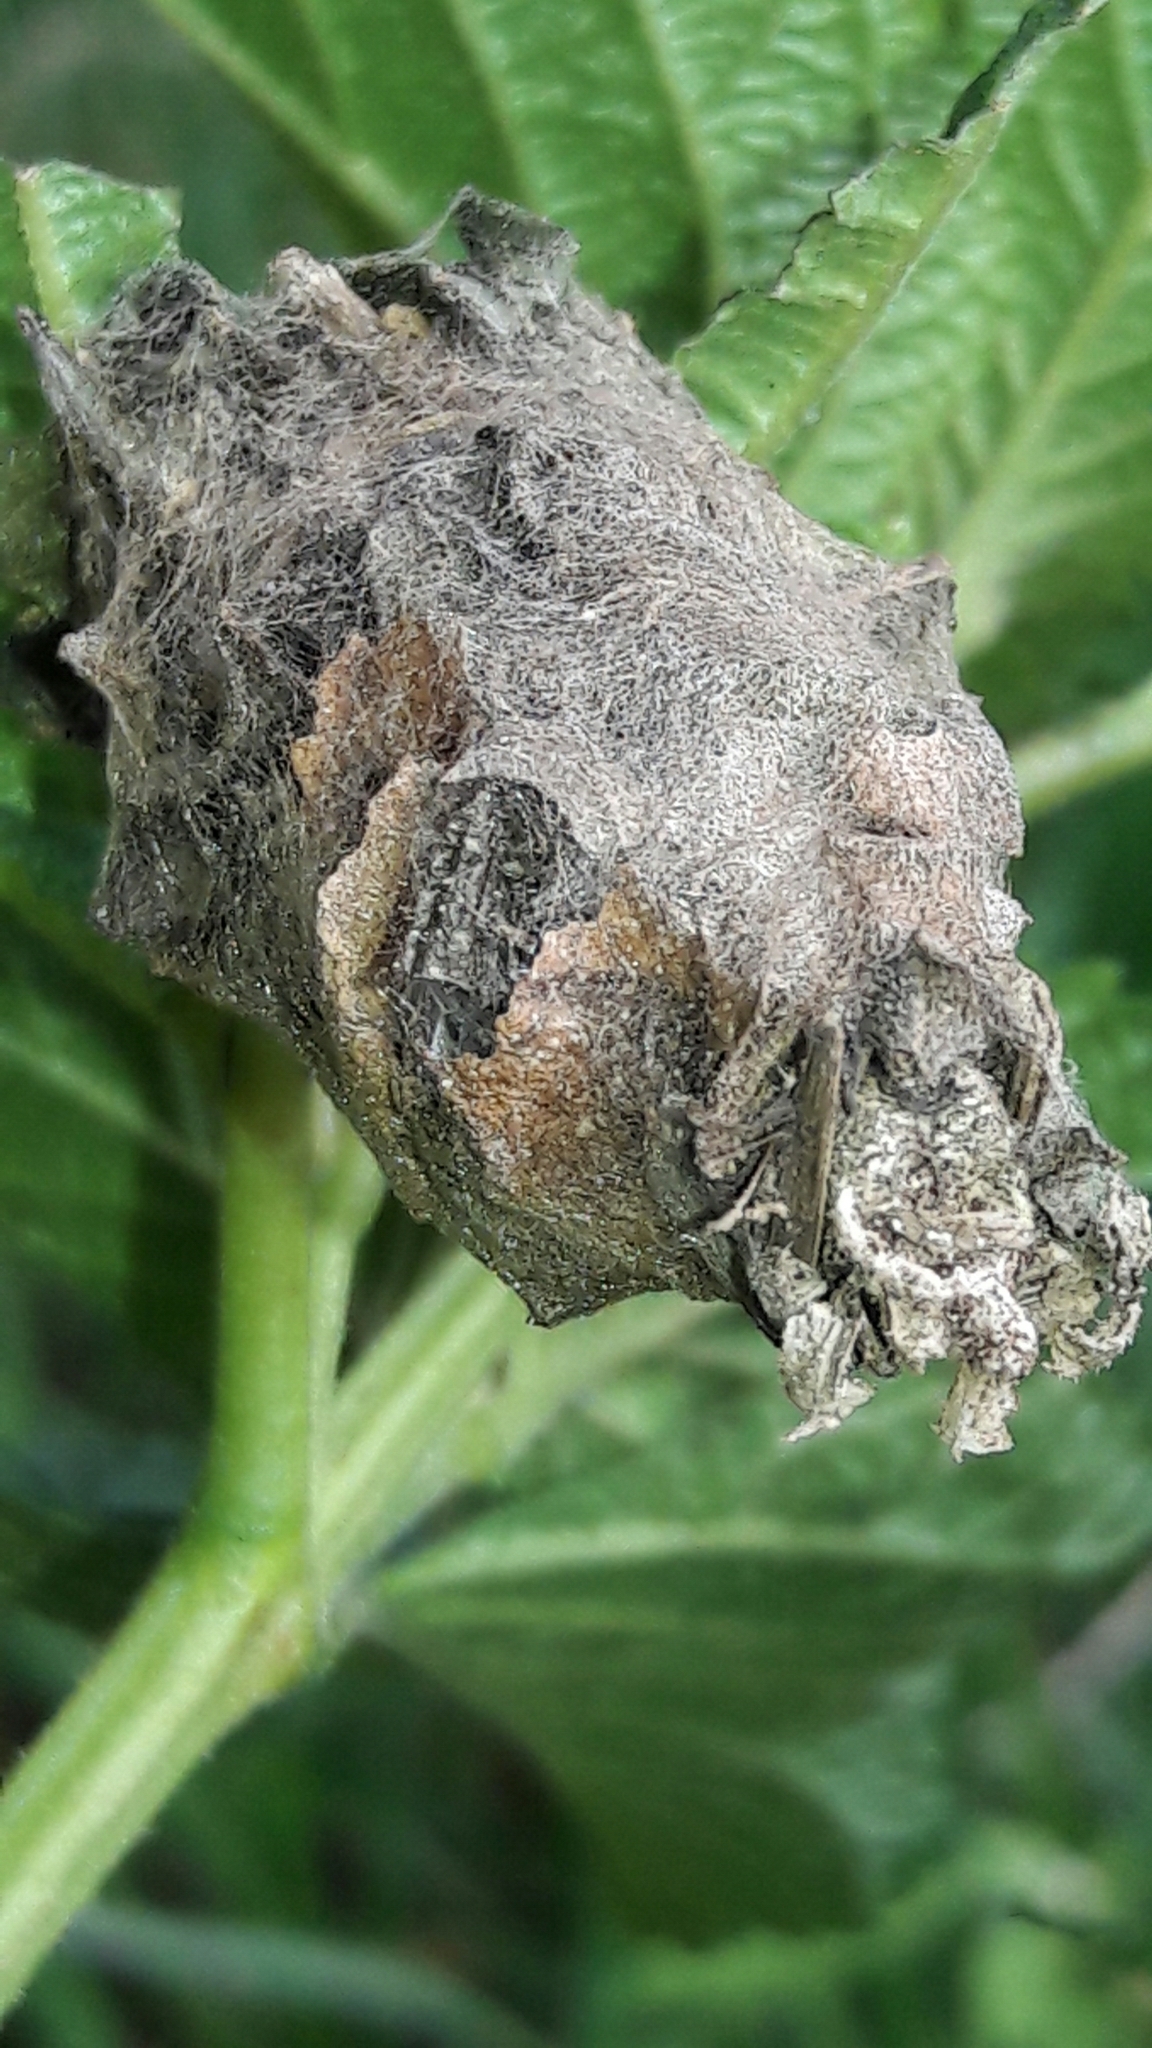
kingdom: Animalia
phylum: Arthropoda
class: Insecta
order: Lepidoptera
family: Psychidae
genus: Oiketicus
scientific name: Oiketicus kirbyi
